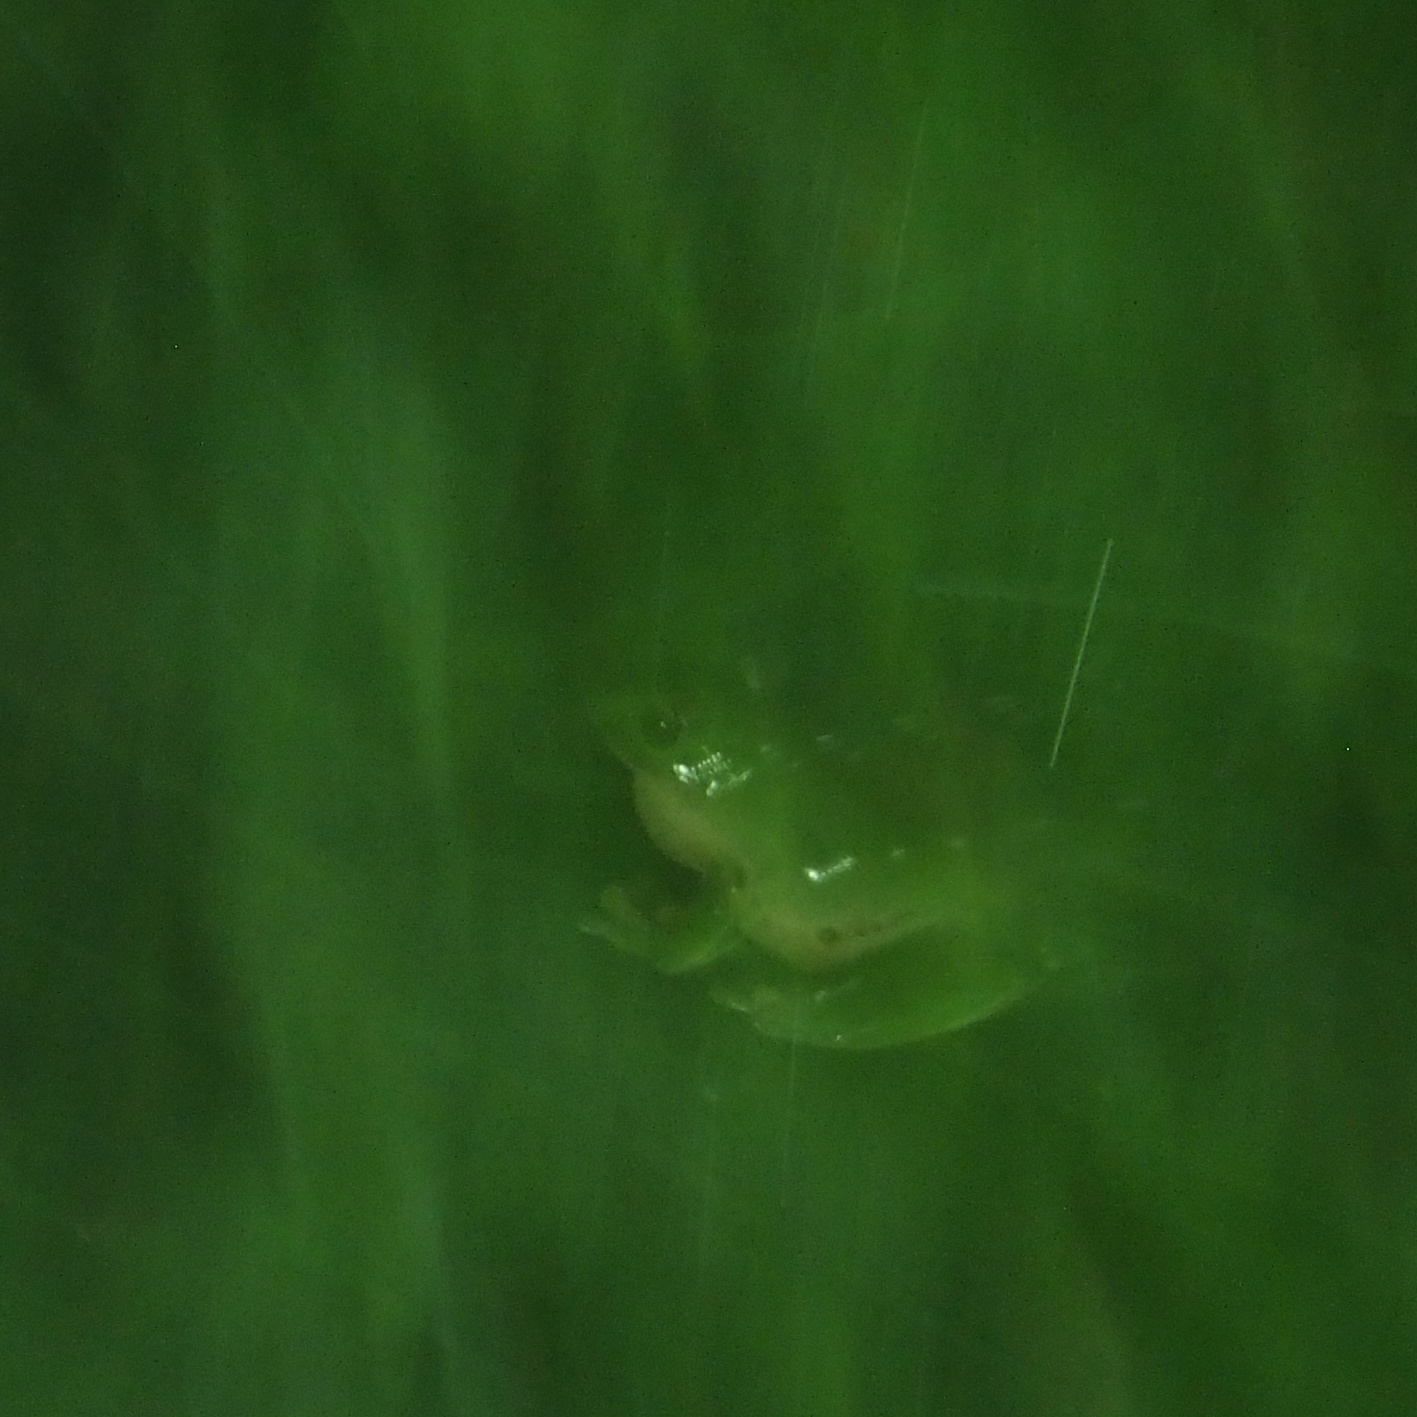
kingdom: Animalia
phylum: Chordata
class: Amphibia
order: Anura
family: Rhacophoridae
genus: Zhangixalus
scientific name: Zhangixalus moltrechti
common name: Moltrecht's treefrog
